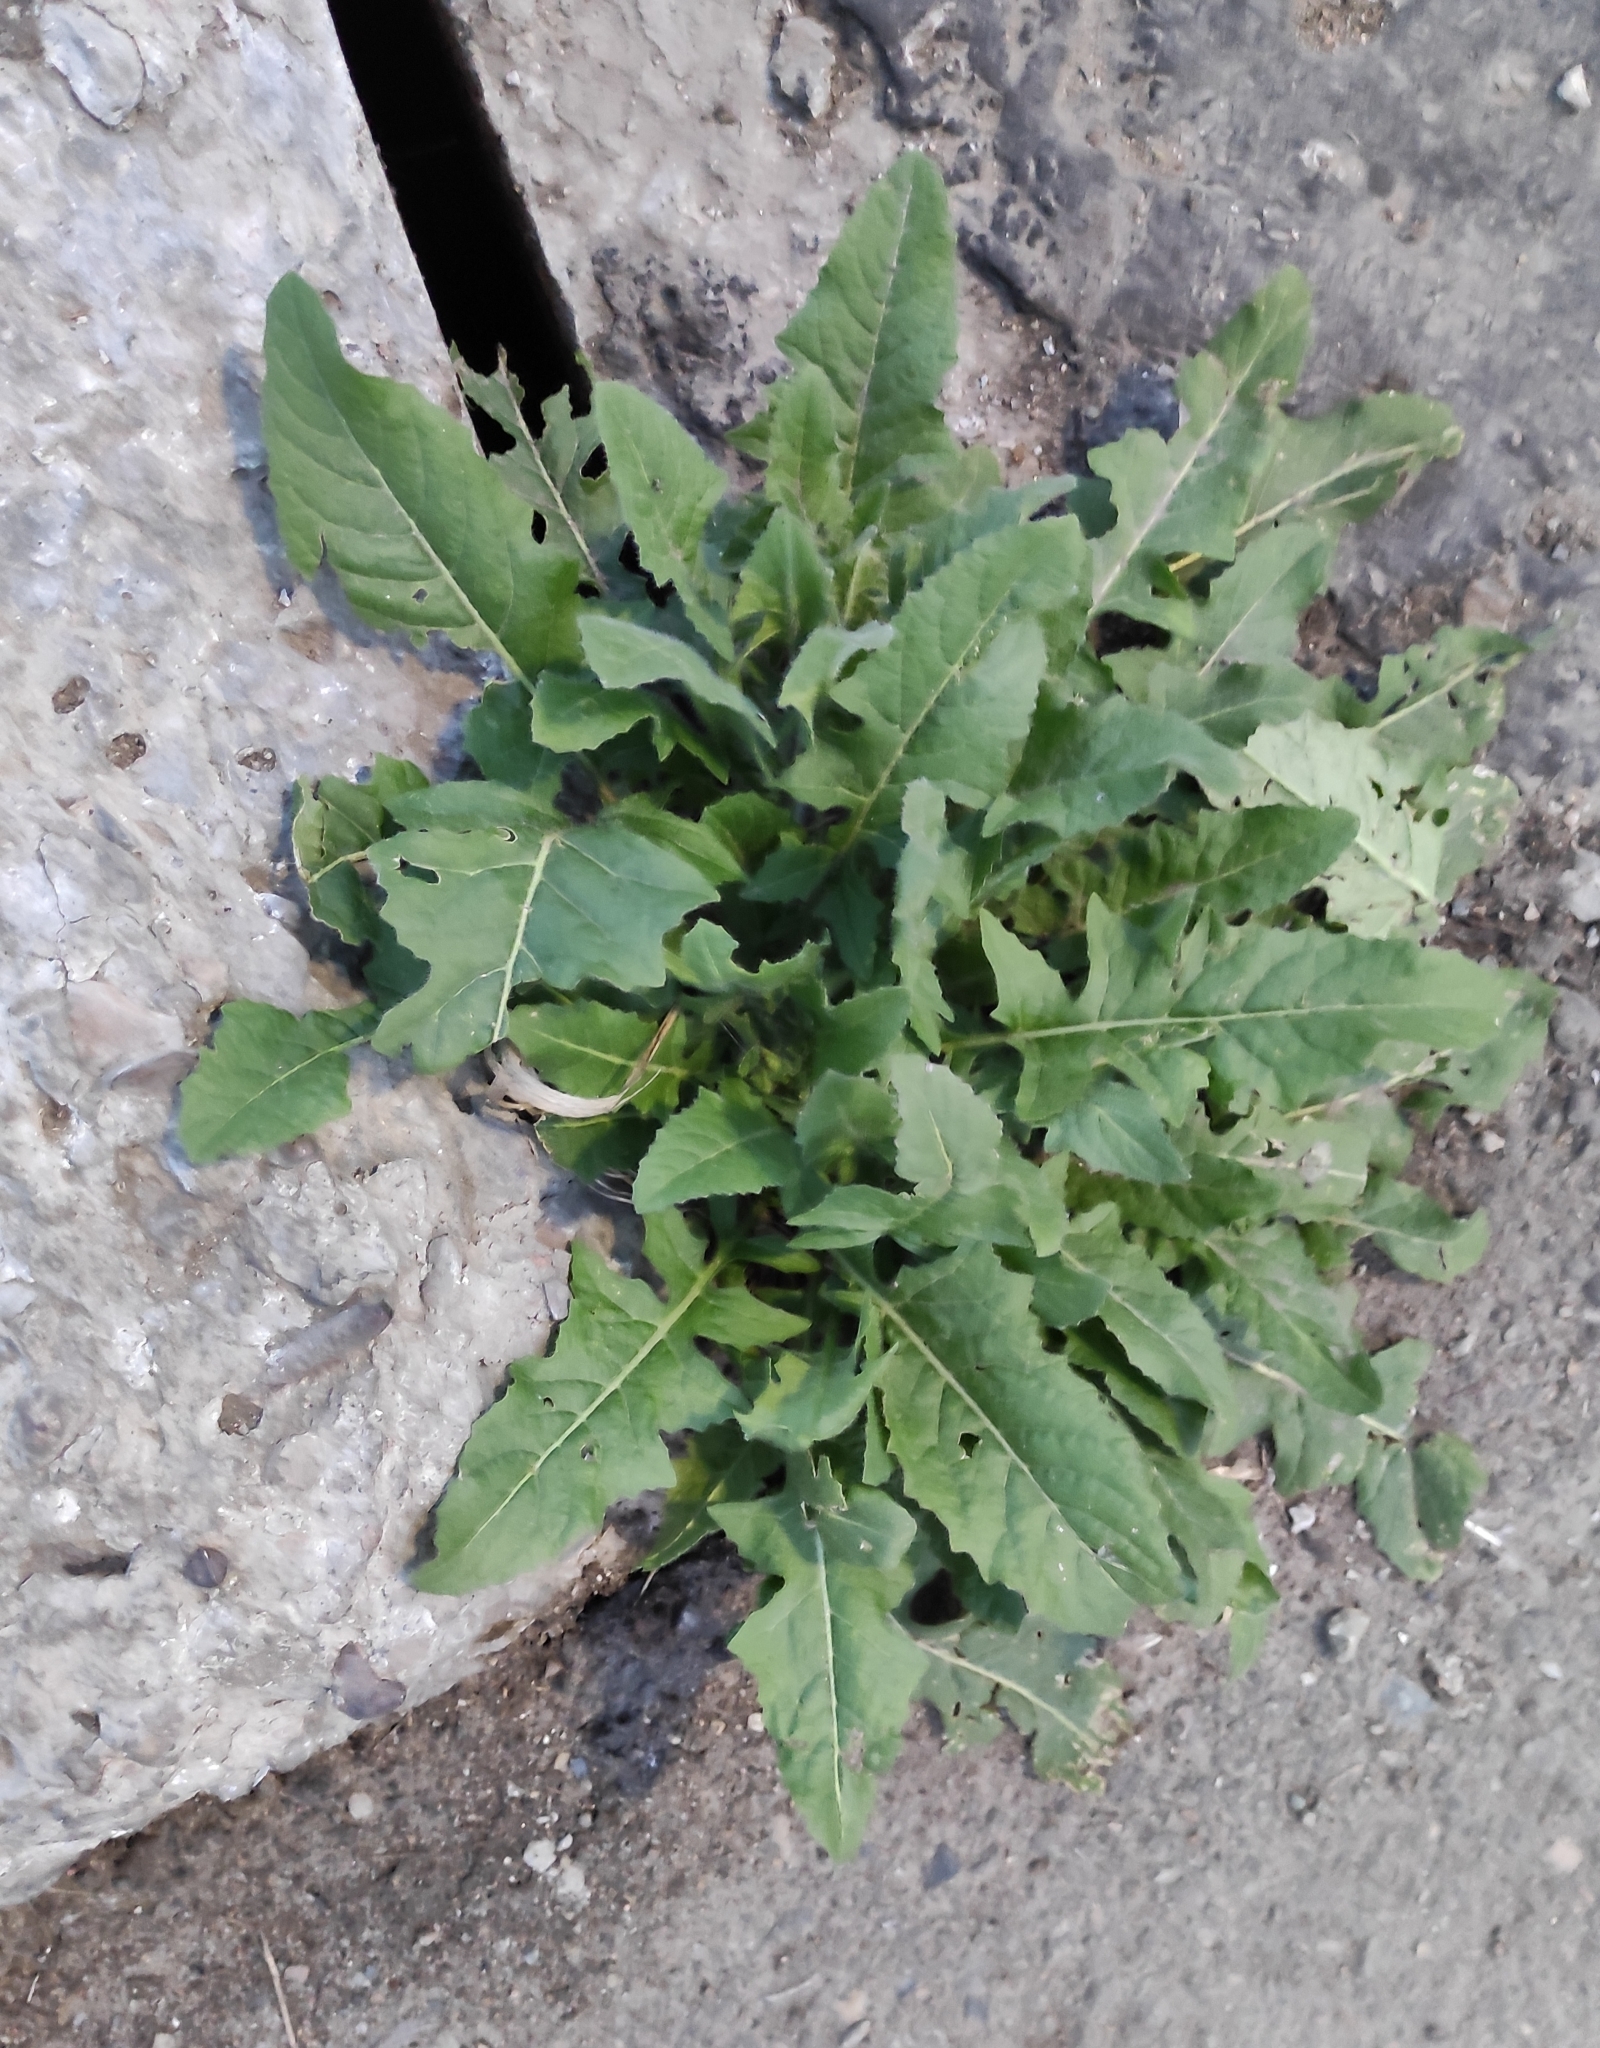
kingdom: Plantae
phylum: Tracheophyta
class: Magnoliopsida
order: Brassicales
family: Brassicaceae
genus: Sisymbrium
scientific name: Sisymbrium loeselii
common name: False london-rocket
